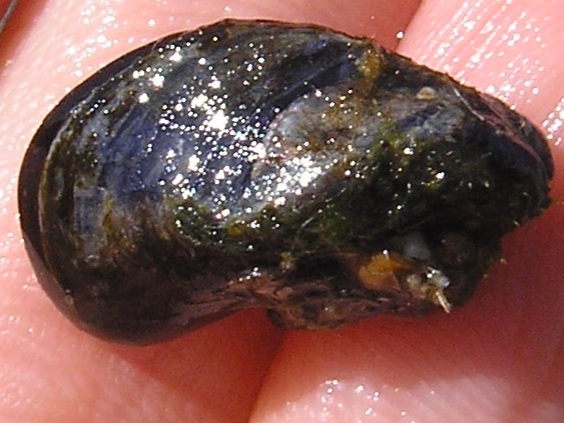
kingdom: Animalia
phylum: Mollusca
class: Bivalvia
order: Mytilida
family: Mytilidae
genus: Mytilus
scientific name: Mytilus edulis
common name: Blue mussel
